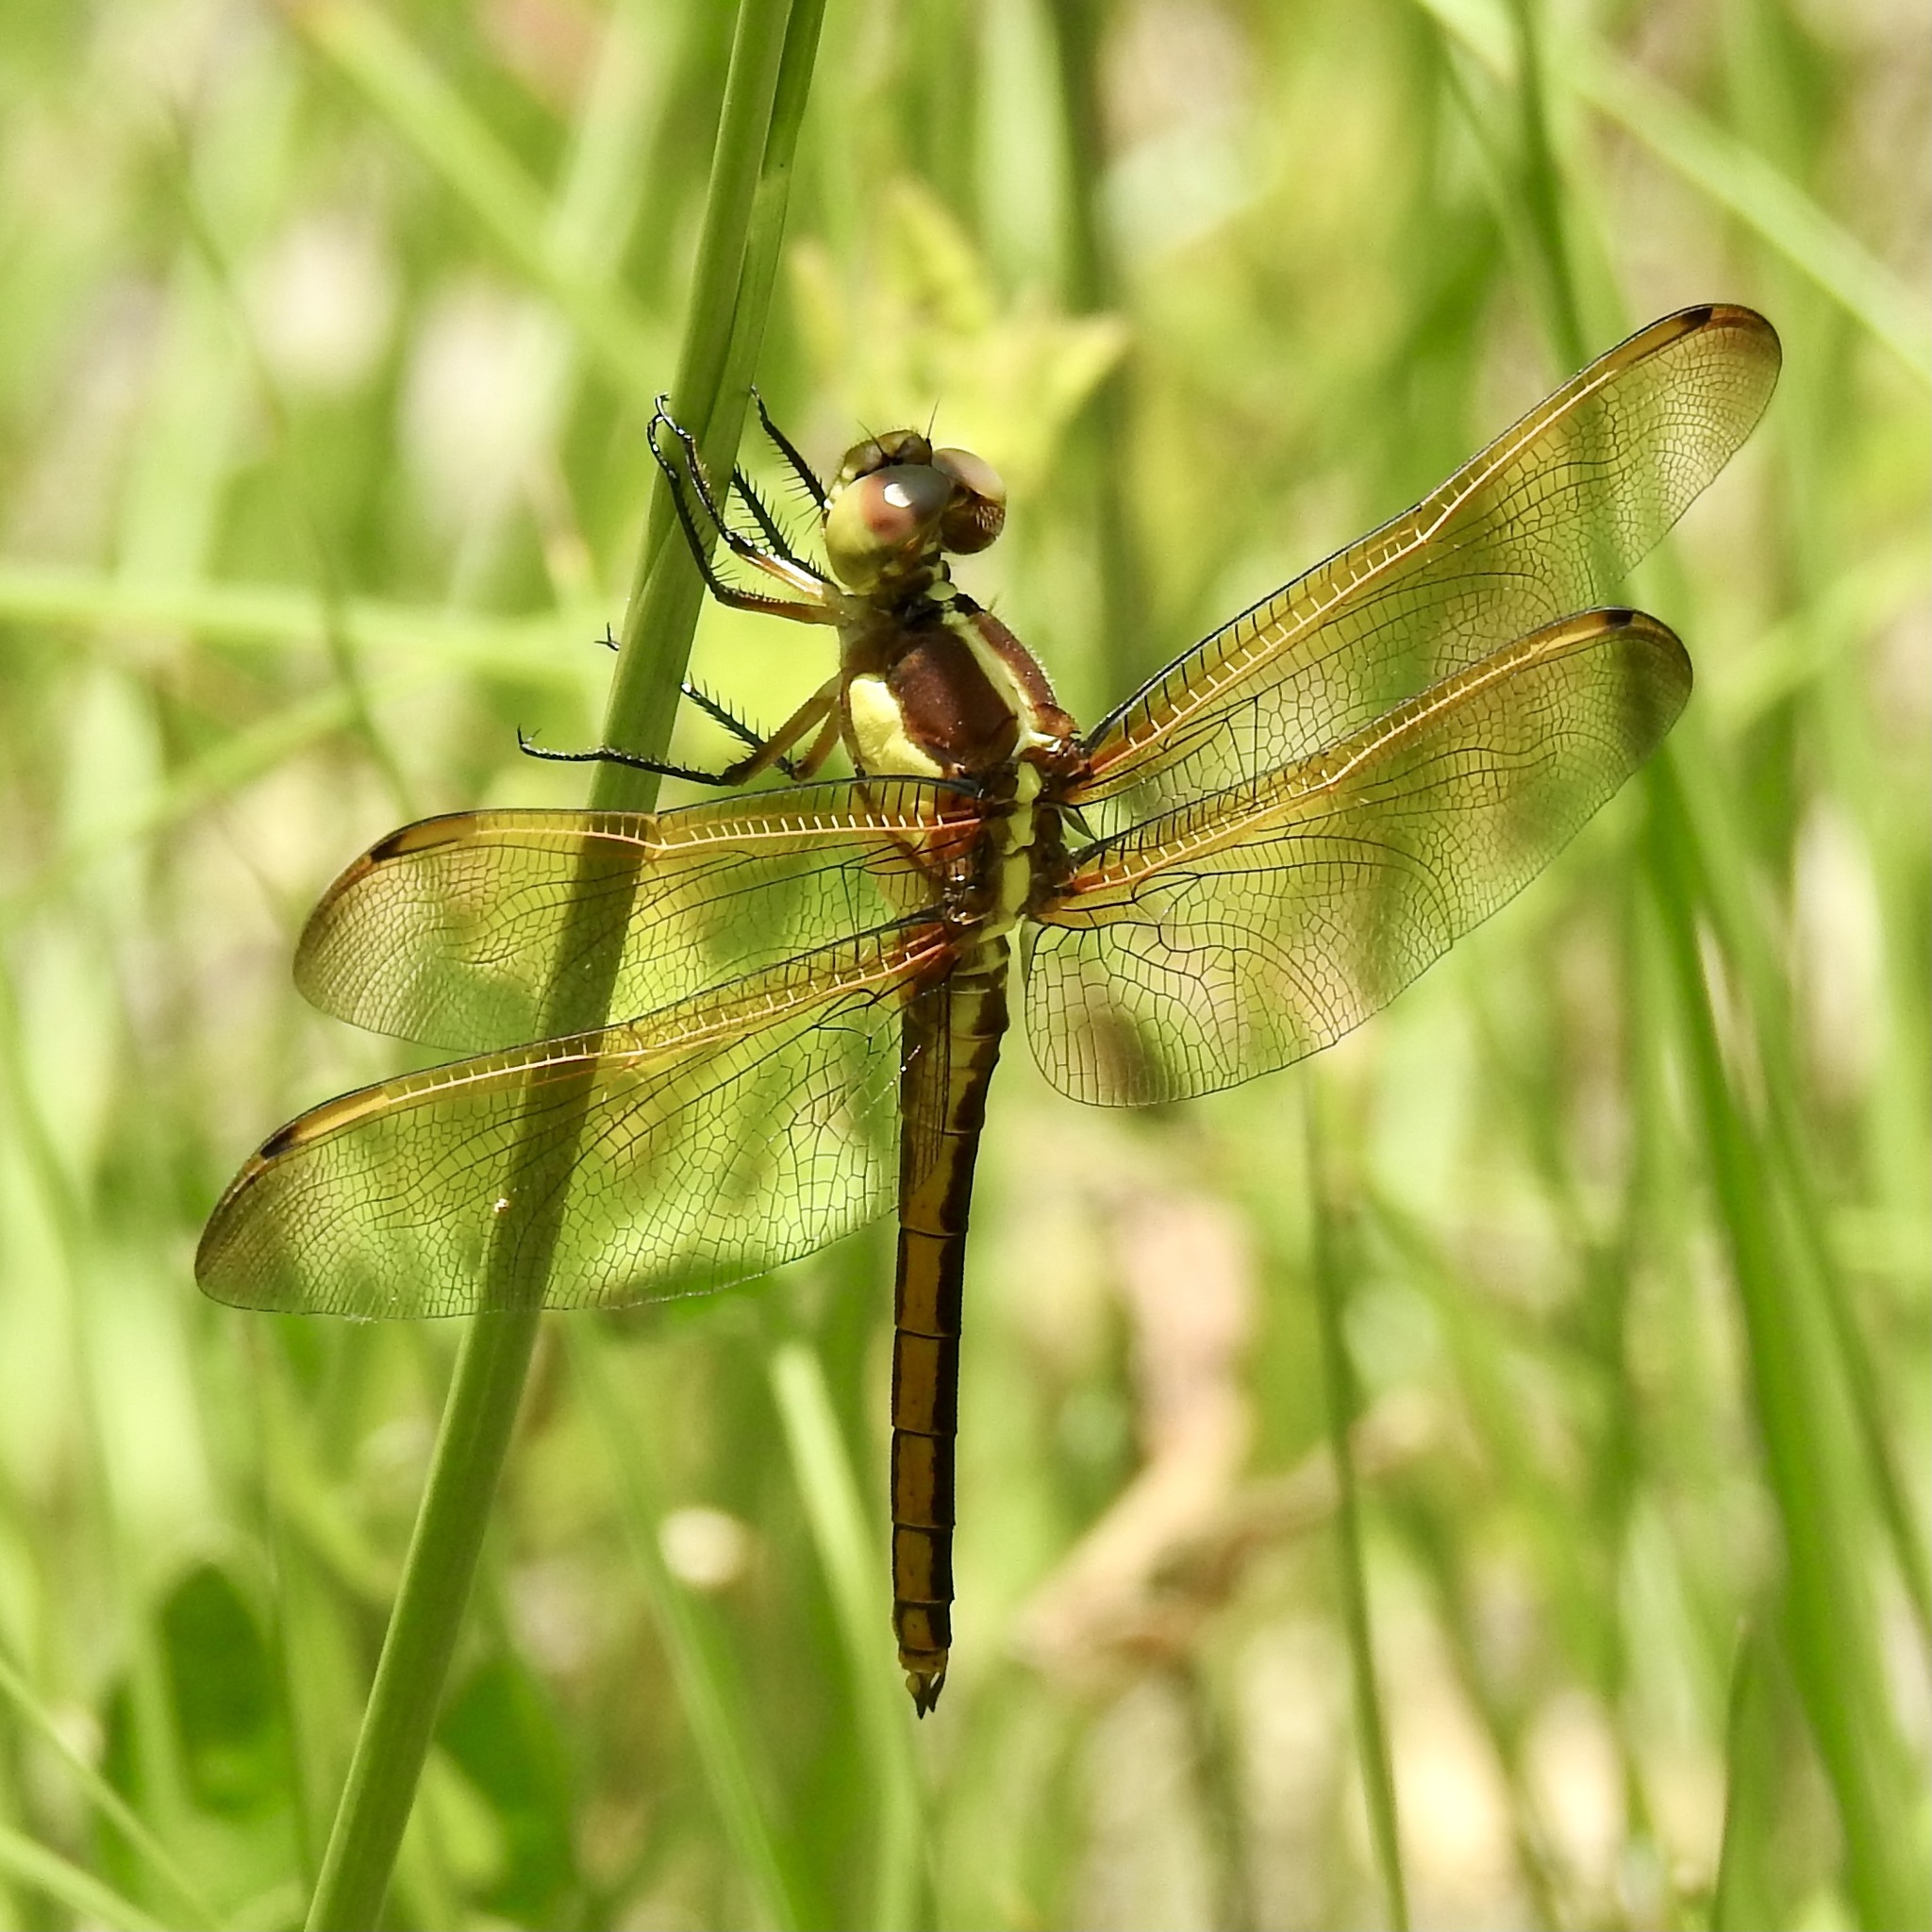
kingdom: Animalia
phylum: Arthropoda
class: Insecta
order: Odonata
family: Libellulidae
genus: Libellula
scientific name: Libellula flavida
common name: Yellow-sided skimmer
